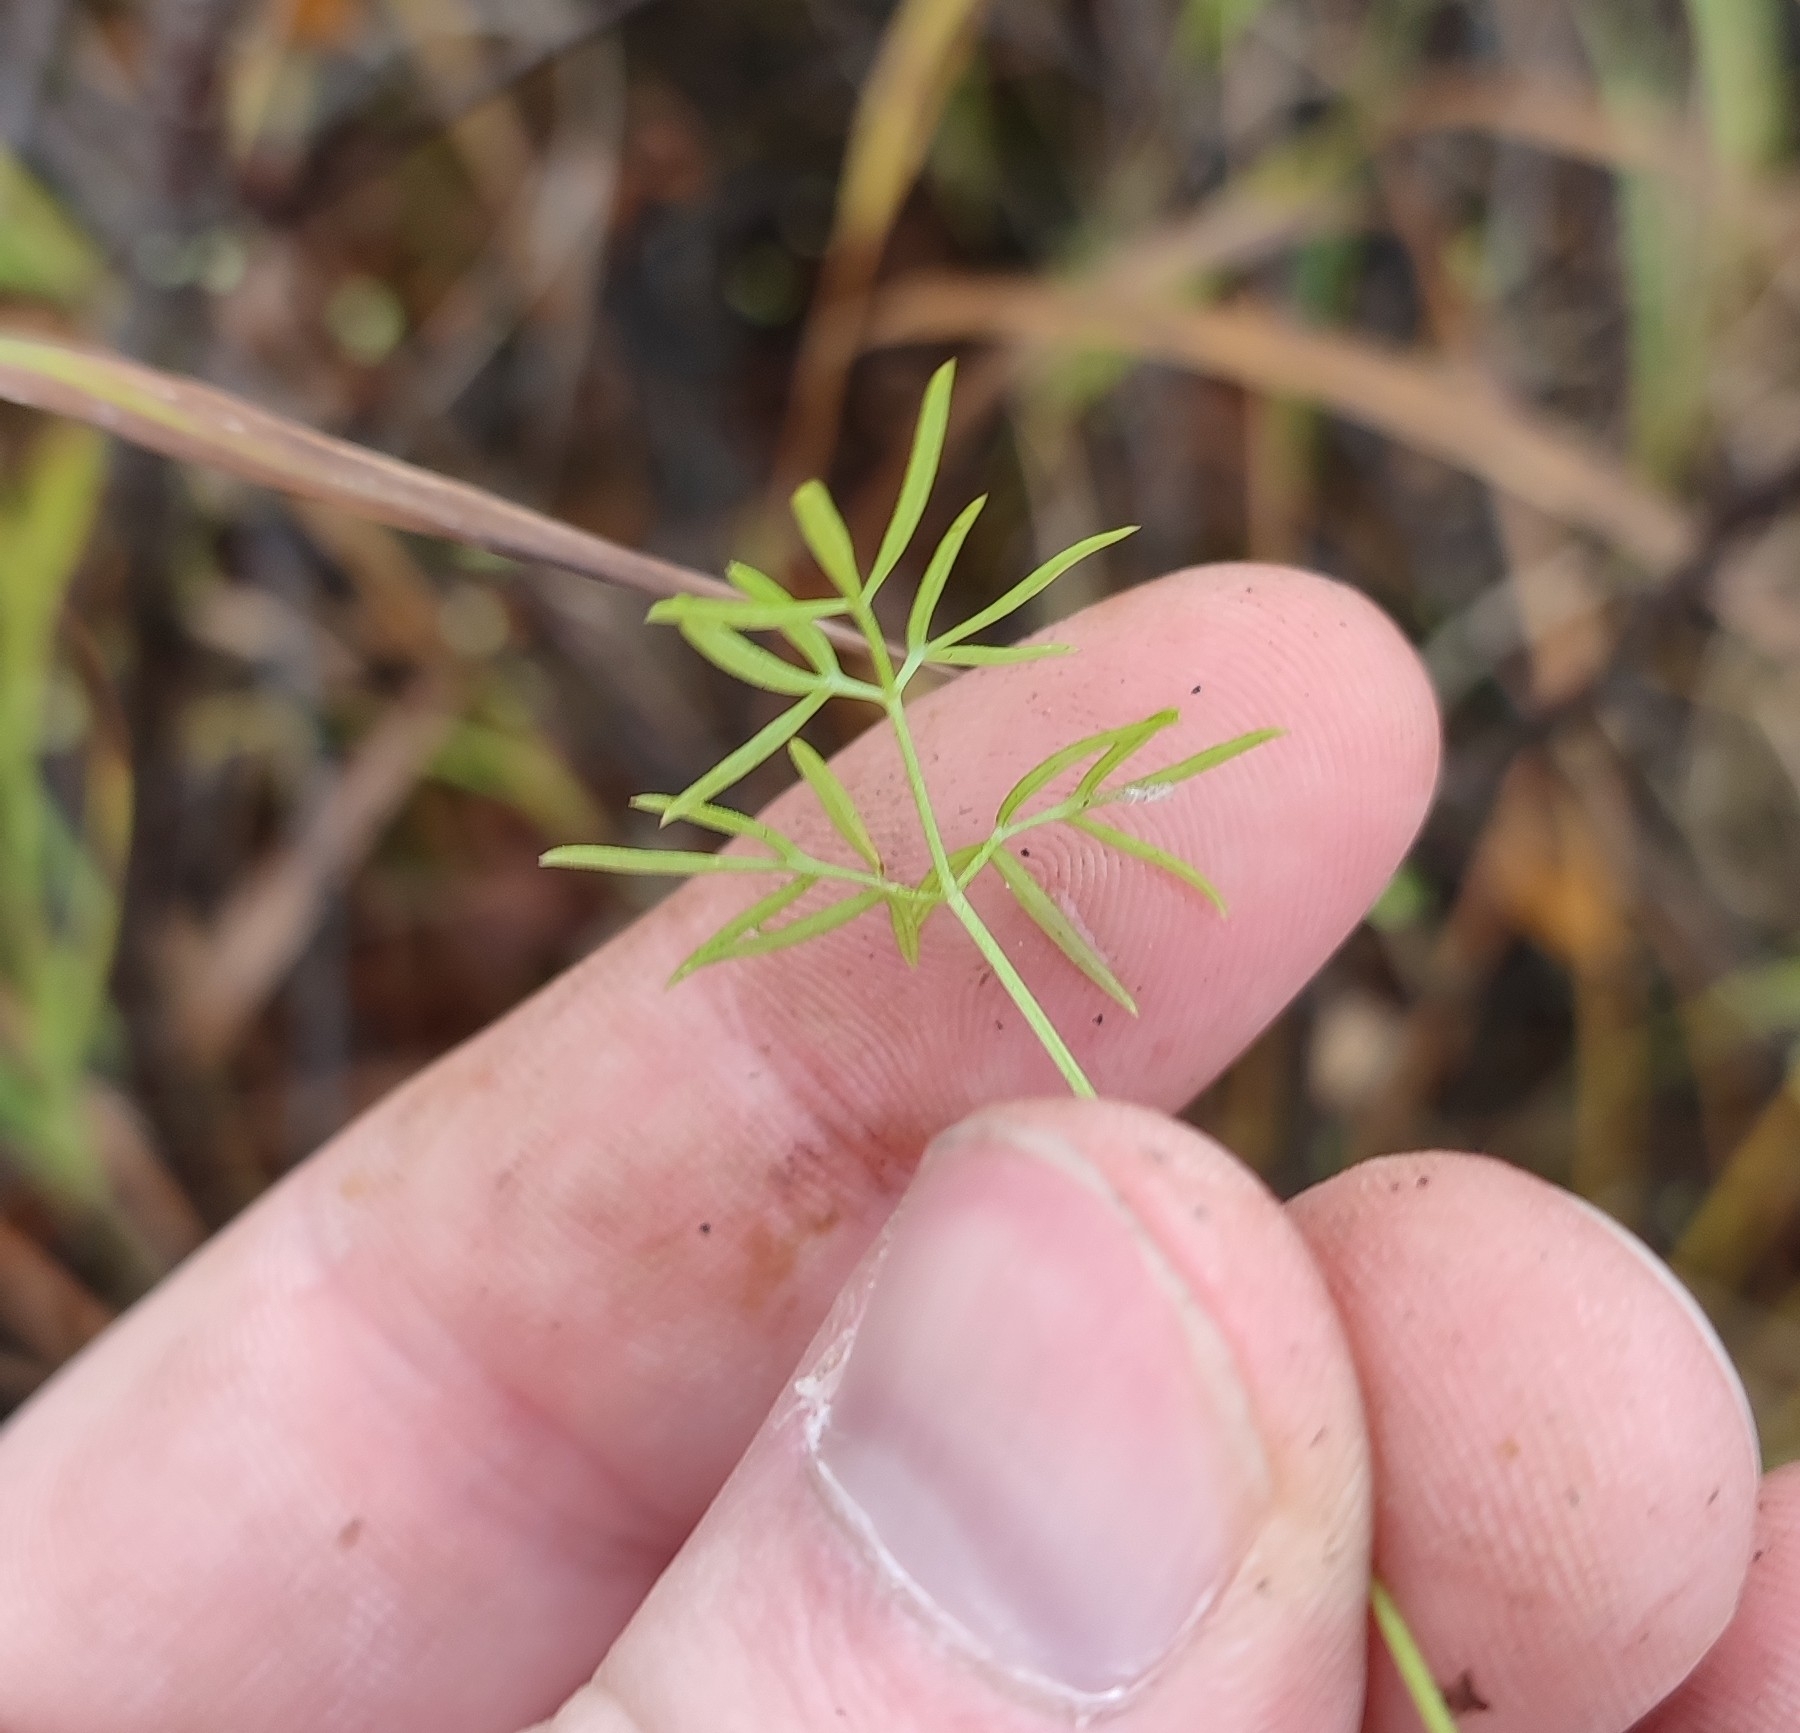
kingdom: Plantae
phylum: Tracheophyta
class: Magnoliopsida
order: Apiales
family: Apiaceae
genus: Ostericum
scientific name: Ostericum tenuifolium
